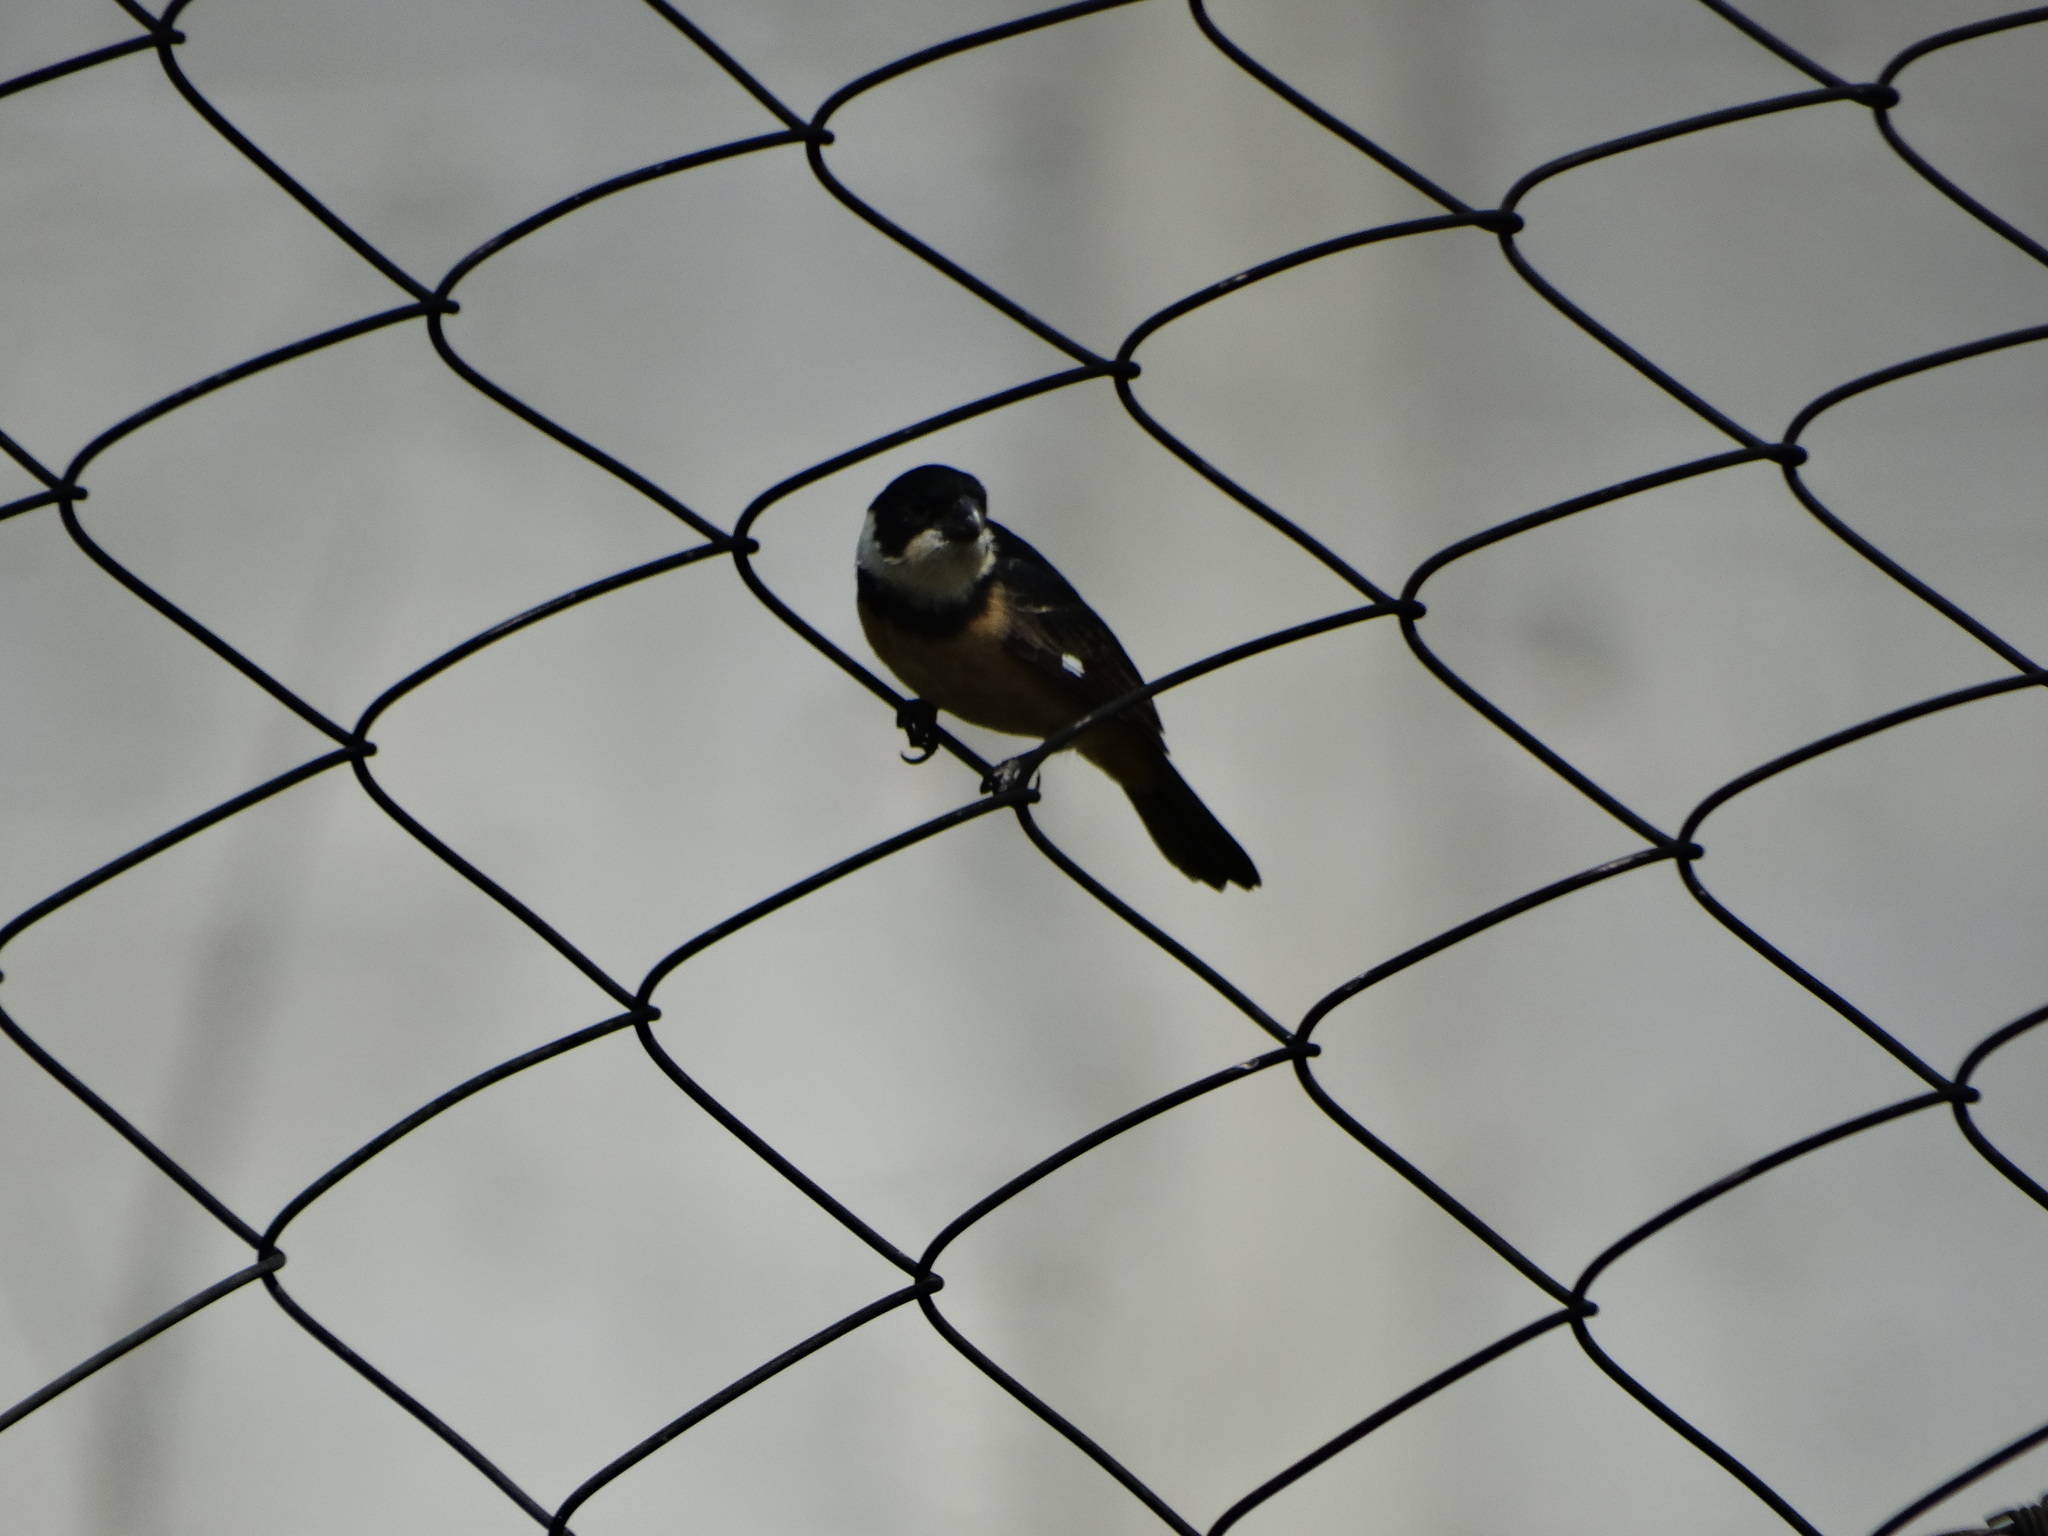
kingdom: Animalia
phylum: Chordata
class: Aves
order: Passeriformes
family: Thraupidae
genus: Sporophila
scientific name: Sporophila torqueola
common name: White-collared seedeater
